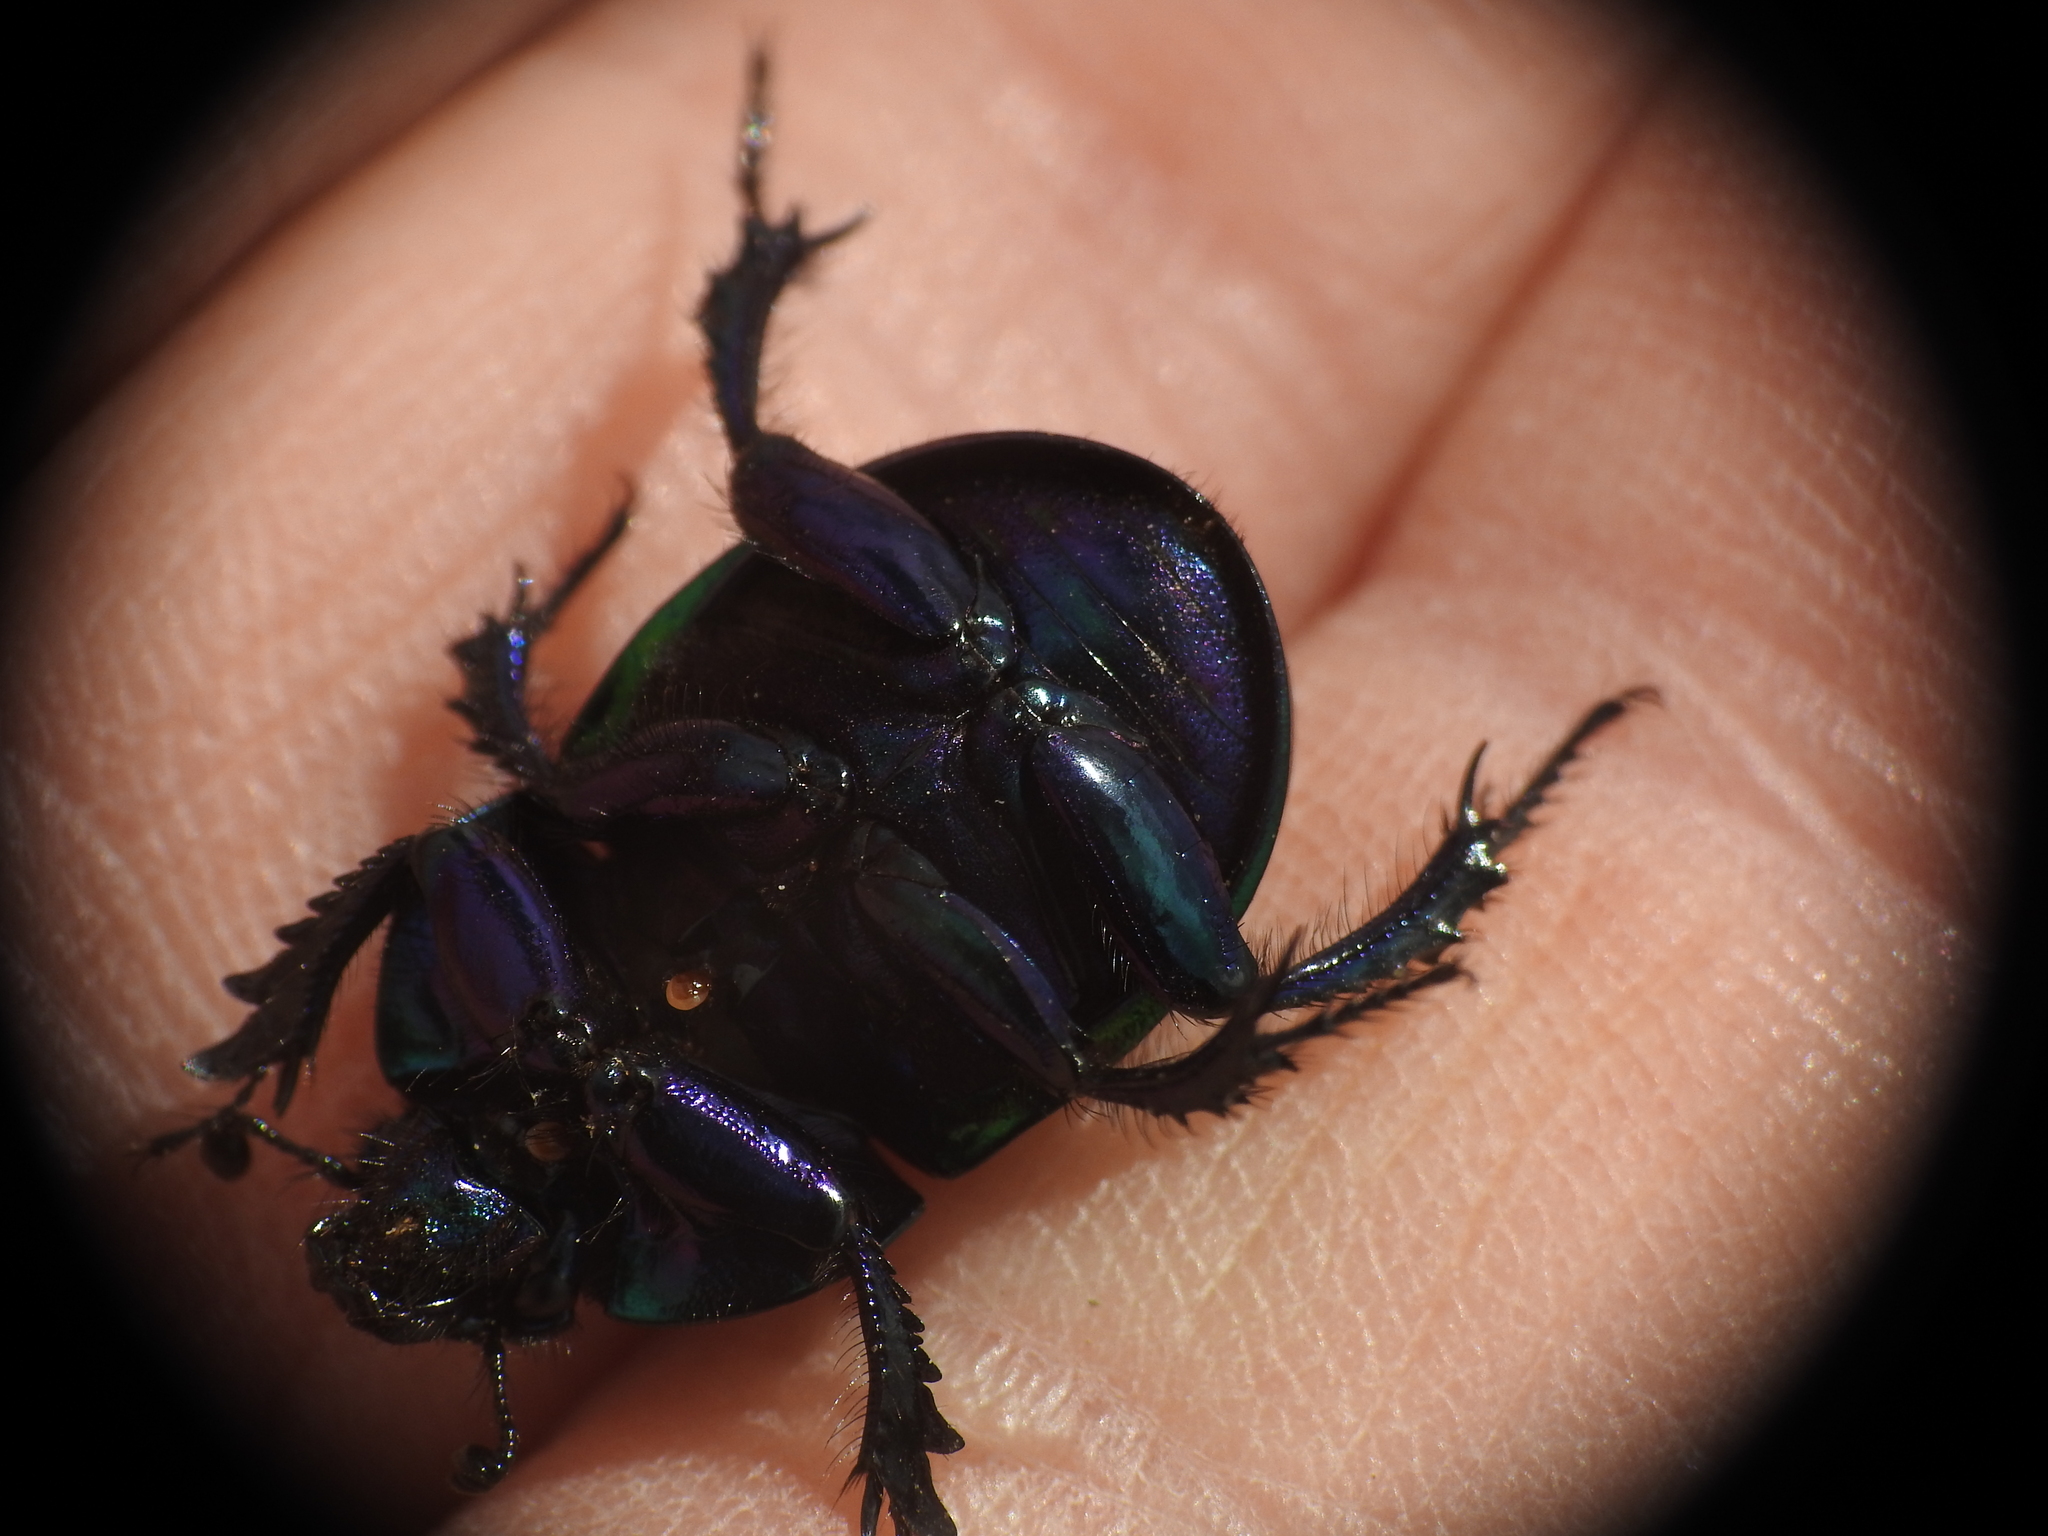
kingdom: Animalia
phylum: Arthropoda
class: Insecta
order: Coleoptera
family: Geotrupidae
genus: Trypocopris
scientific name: Trypocopris pyrenaeus
